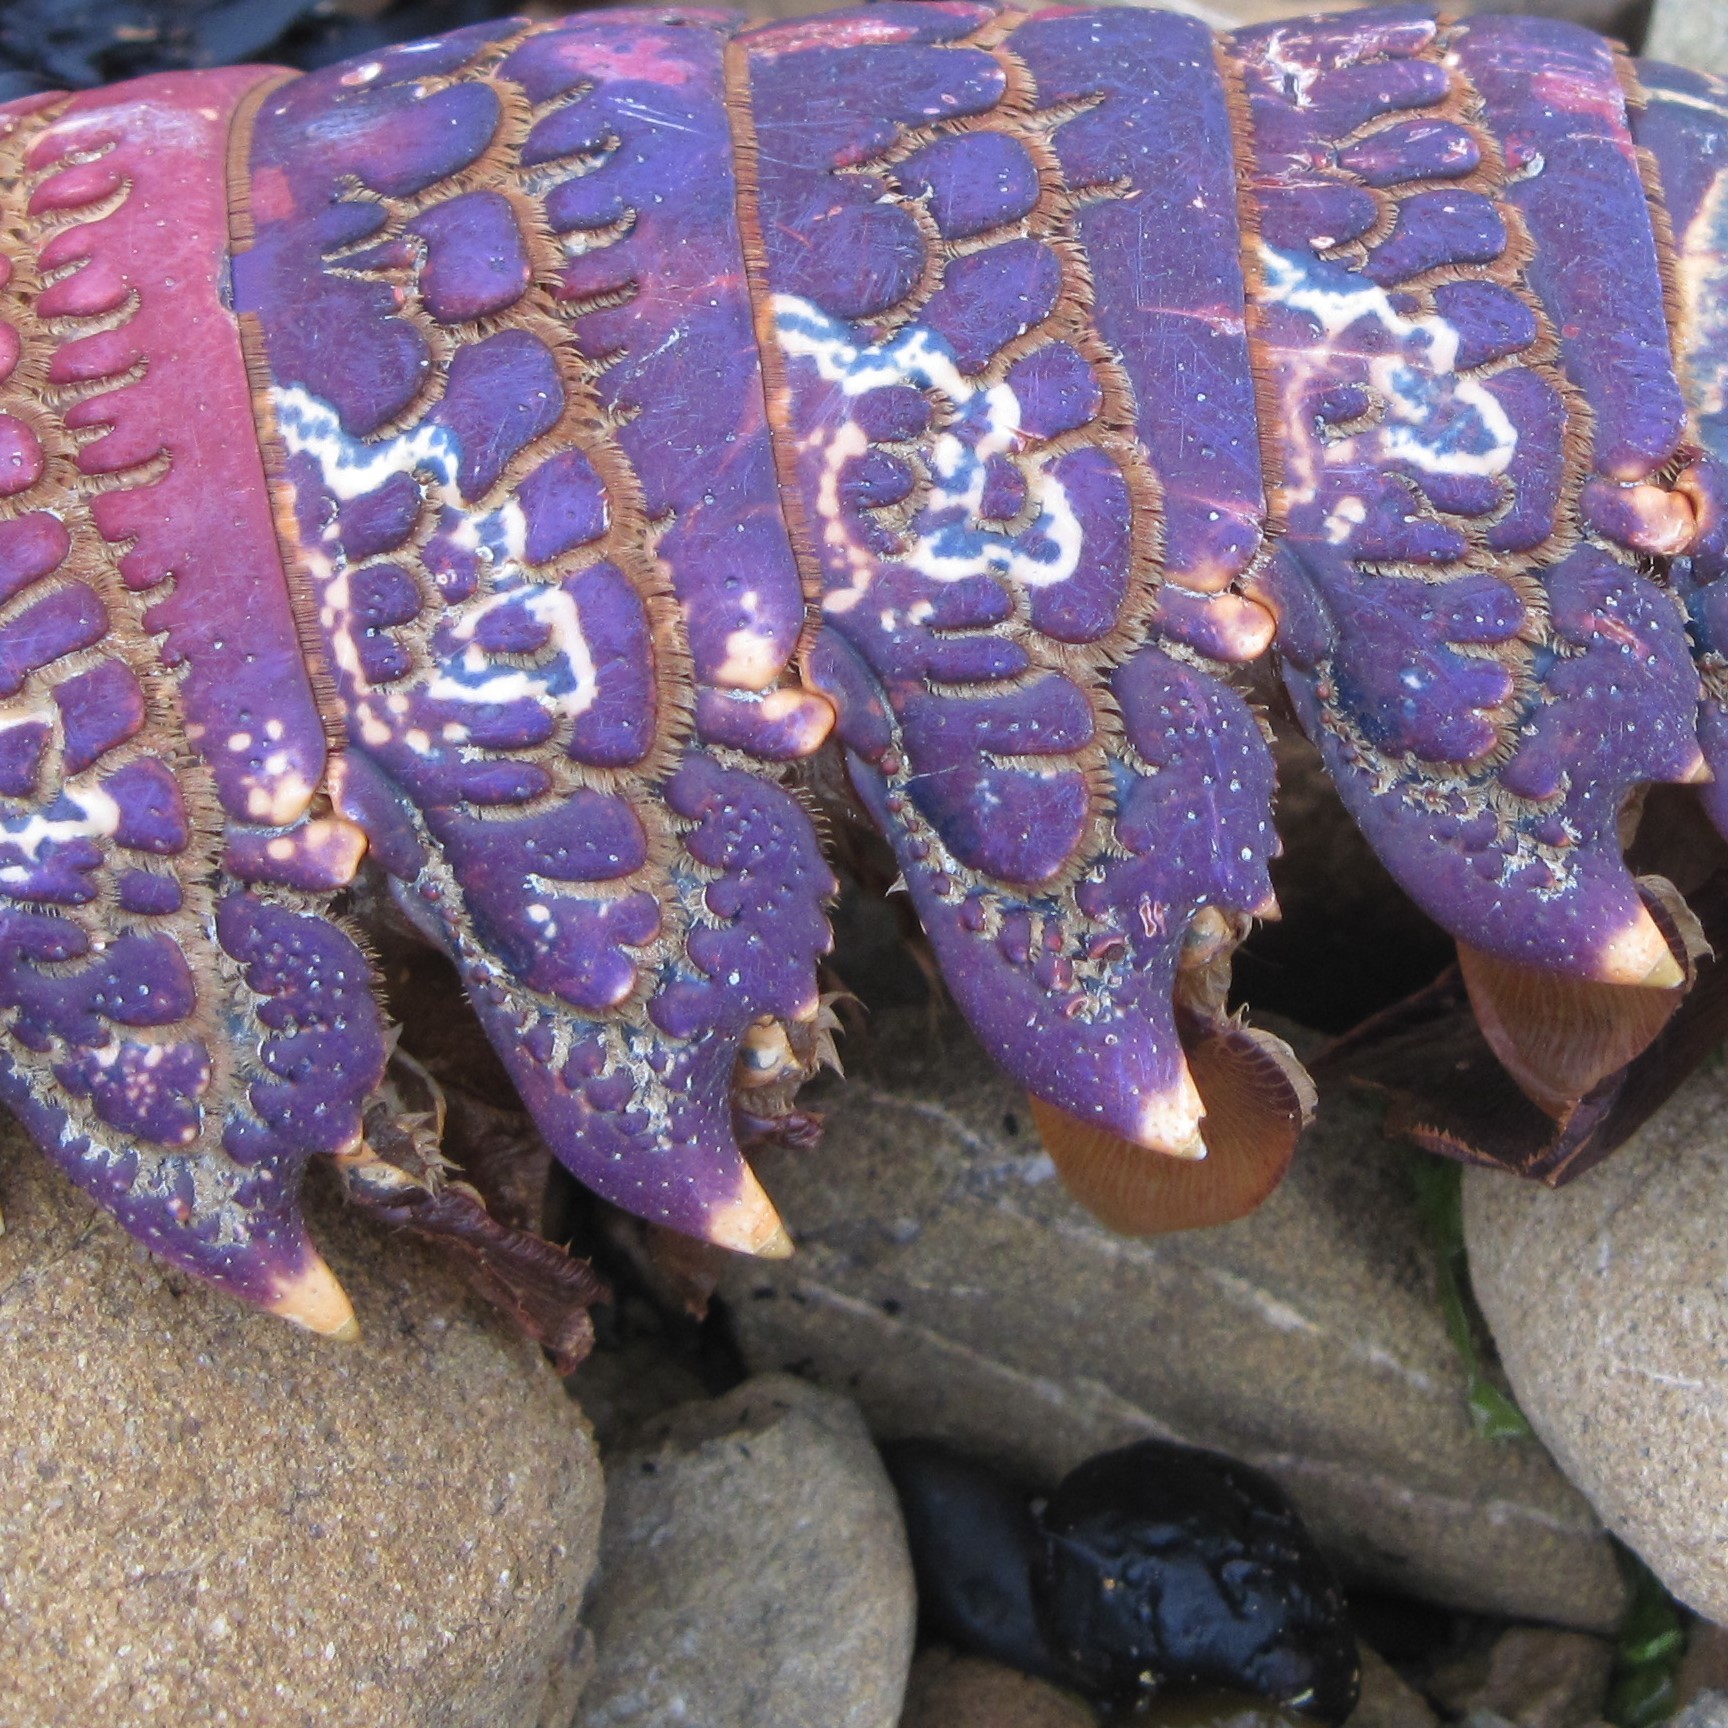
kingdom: Animalia
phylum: Arthropoda
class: Malacostraca
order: Decapoda
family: Palinuridae
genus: Jasus
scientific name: Jasus edwardsii
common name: Red rock lobster
